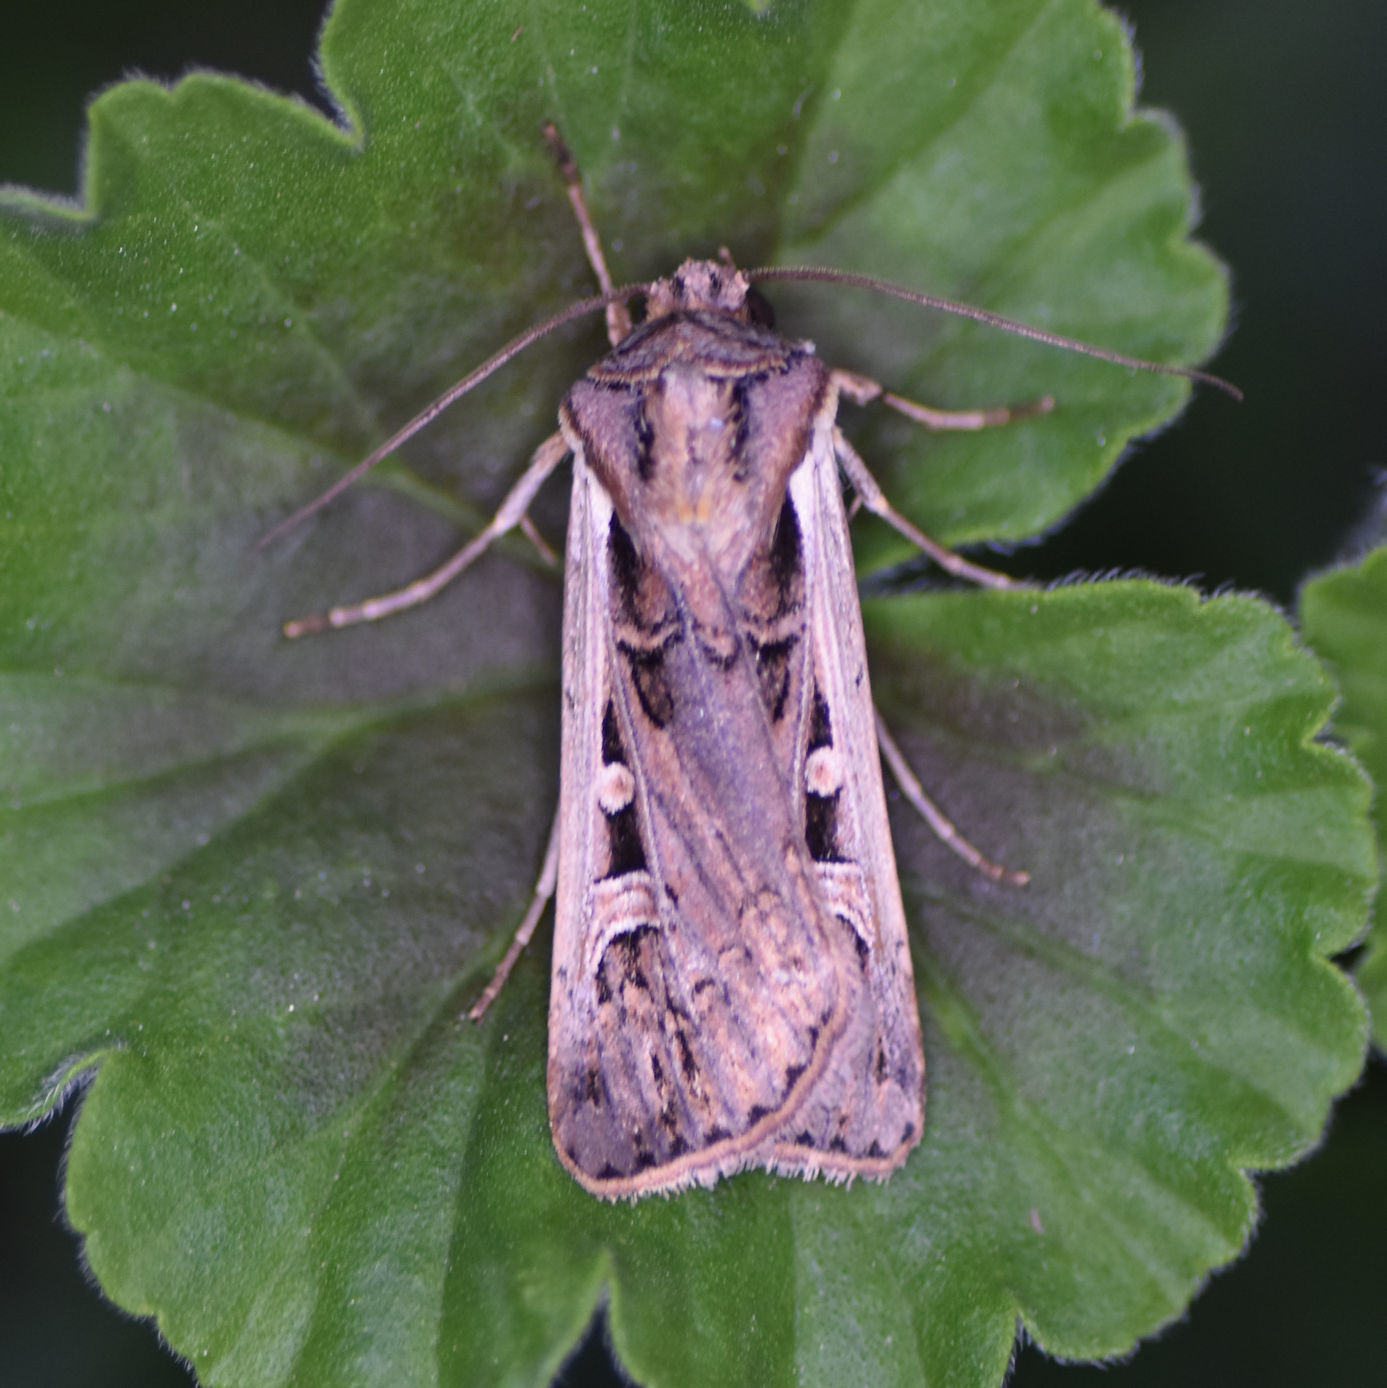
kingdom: Animalia
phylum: Arthropoda
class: Insecta
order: Lepidoptera
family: Noctuidae
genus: Striacosta
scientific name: Striacosta albicosta
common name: Western bean cutworm moth
